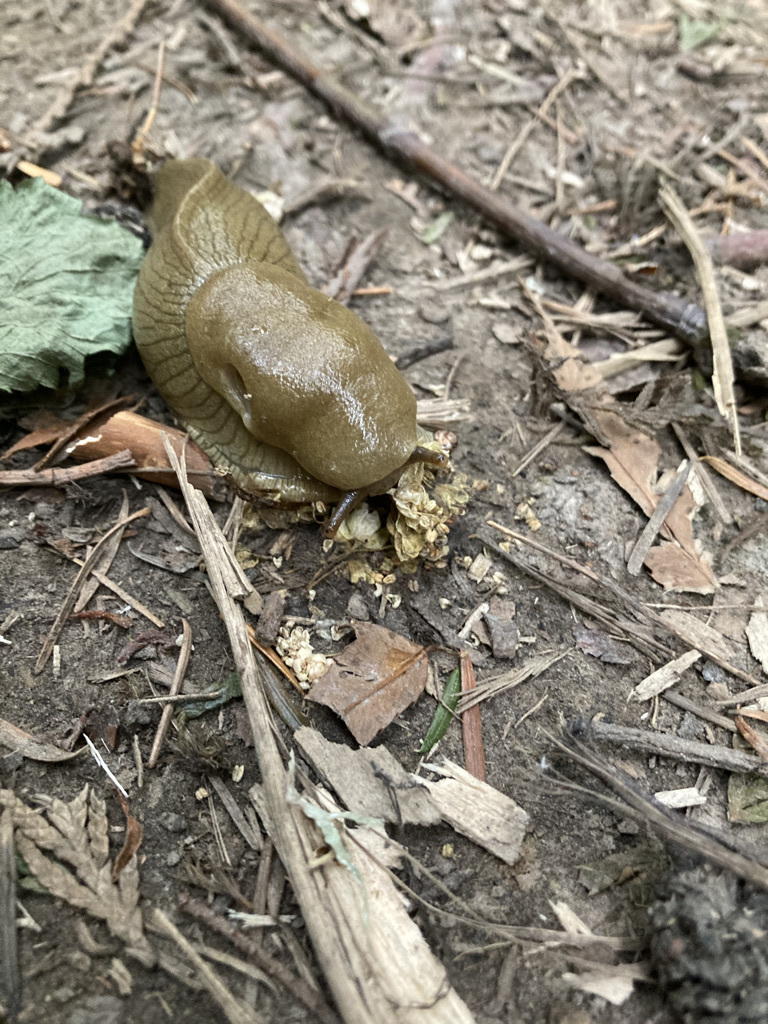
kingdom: Animalia
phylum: Mollusca
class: Gastropoda
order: Stylommatophora
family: Ariolimacidae
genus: Ariolimax
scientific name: Ariolimax columbianus
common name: Pacific banana slug
